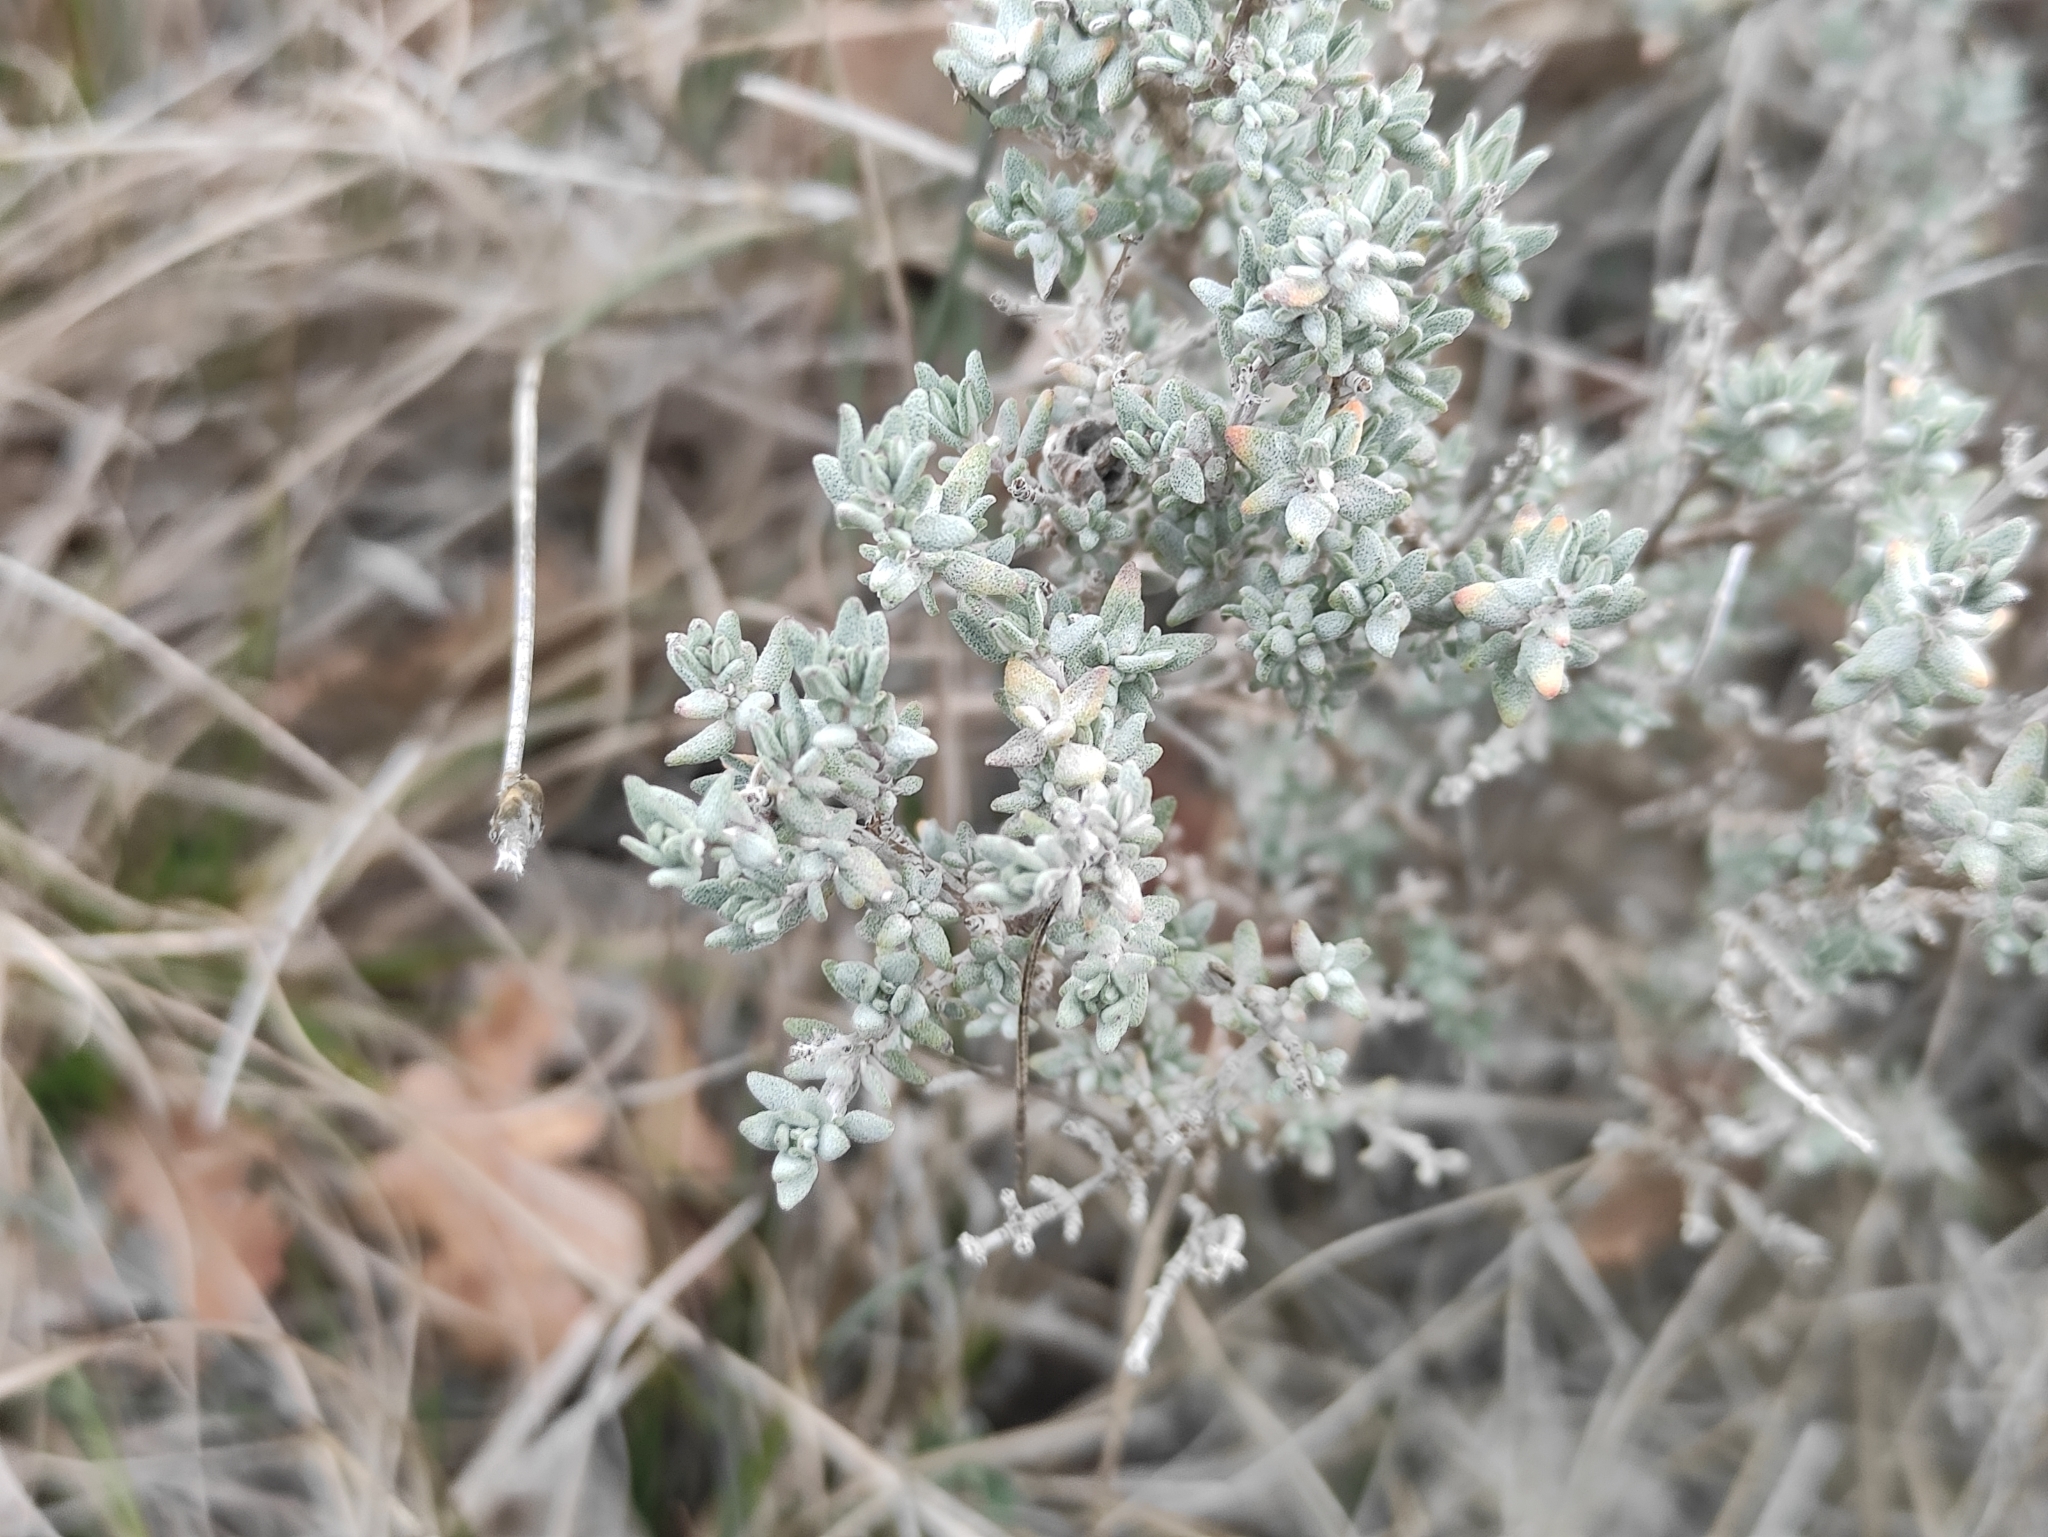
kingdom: Plantae
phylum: Tracheophyta
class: Magnoliopsida
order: Lamiales
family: Lamiaceae
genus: Thymus
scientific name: Thymus vulgaris
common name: Garden thyme
